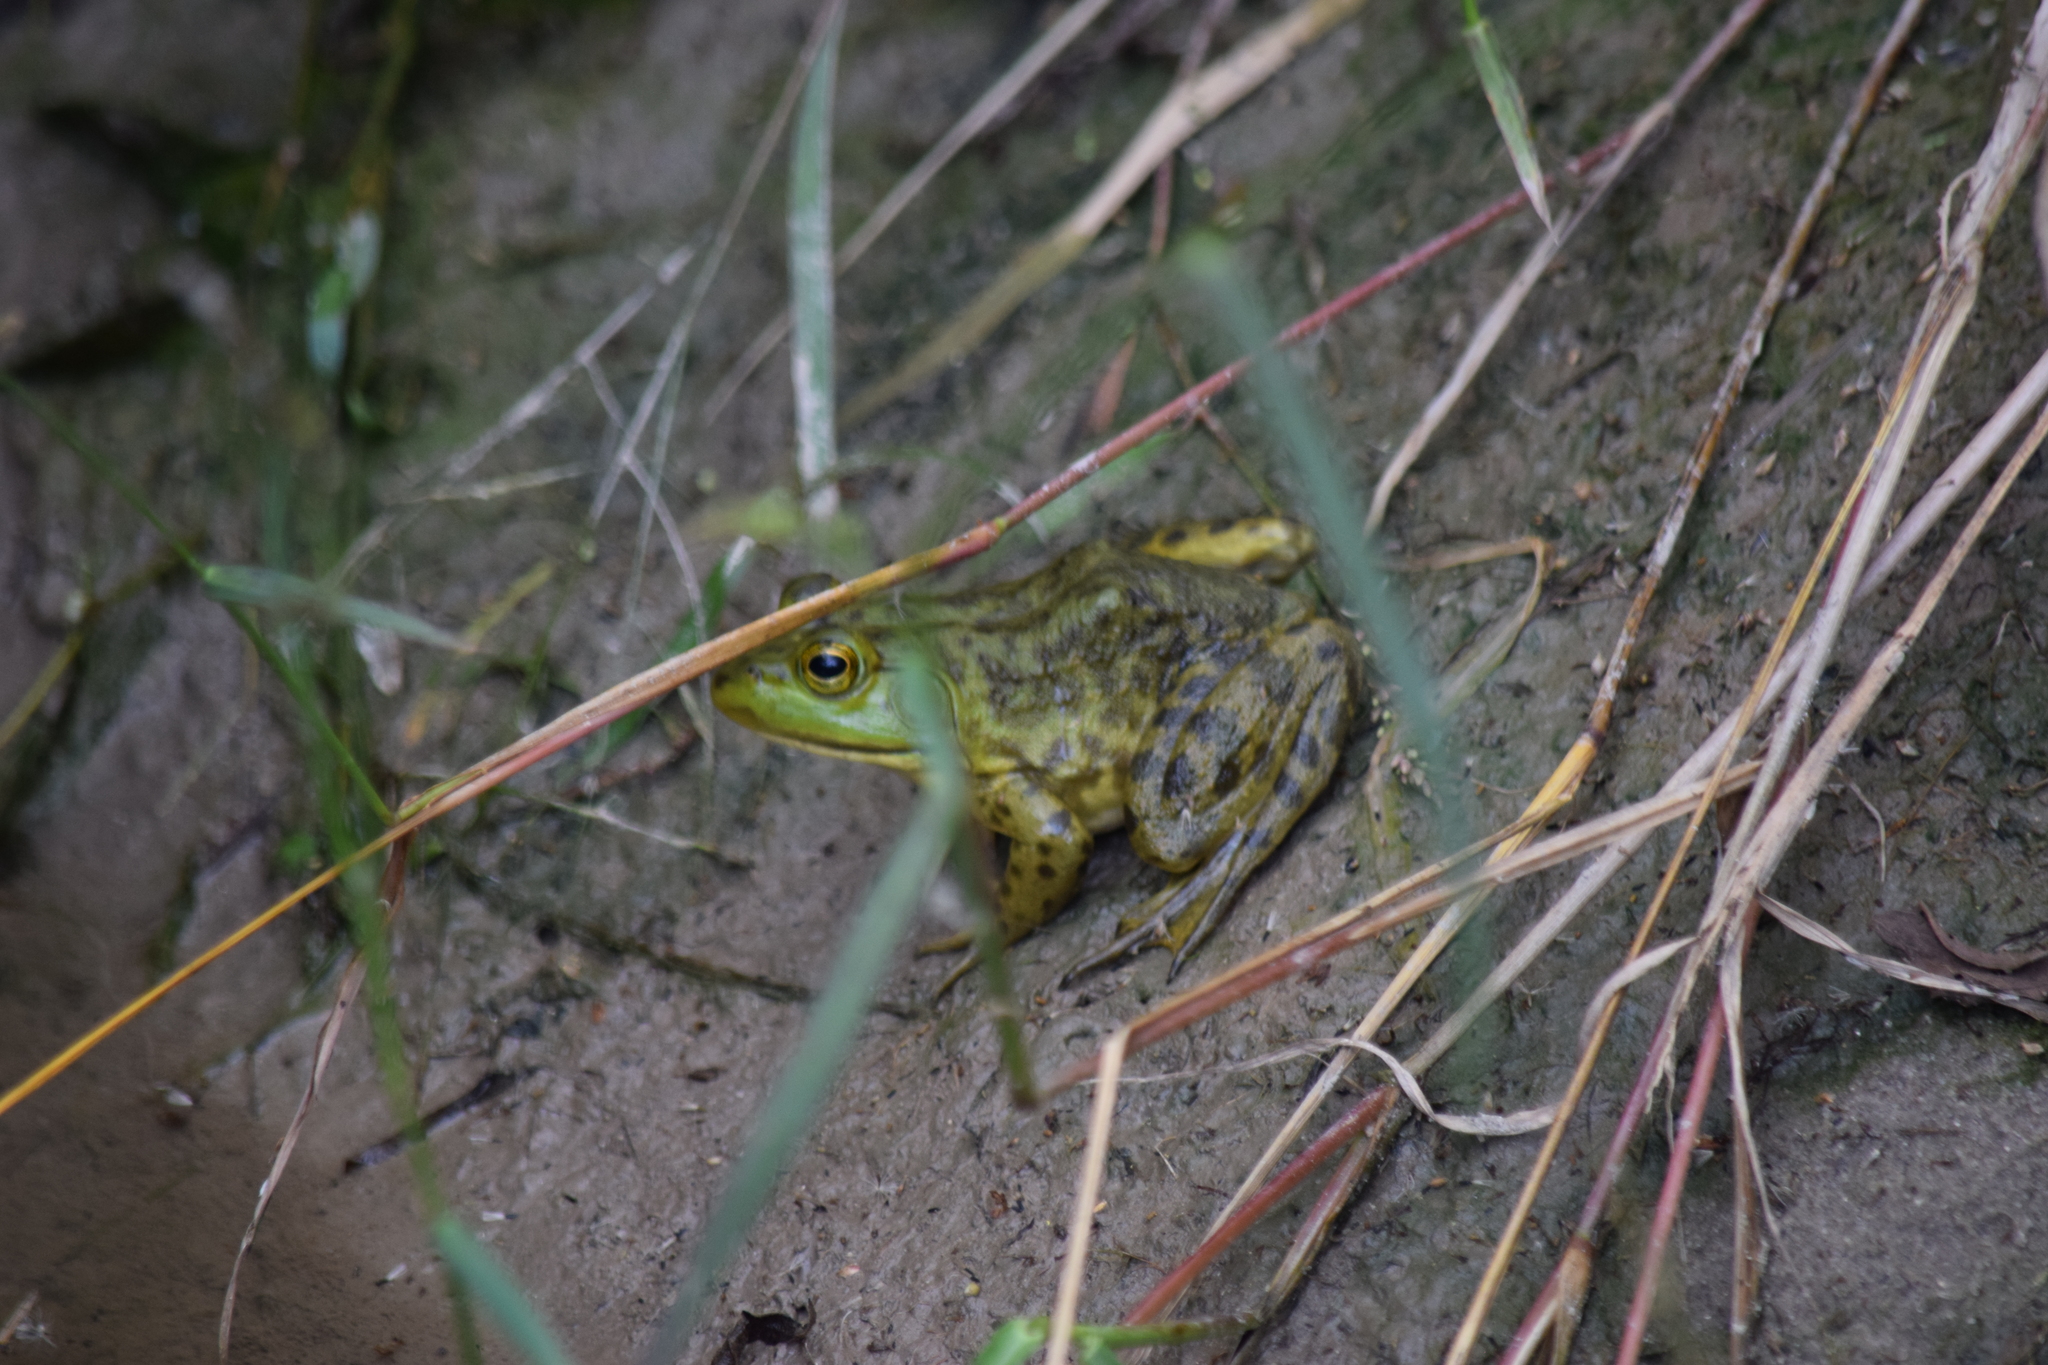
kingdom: Animalia
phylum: Chordata
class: Amphibia
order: Anura
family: Ranidae
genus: Lithobates
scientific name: Lithobates catesbeianus
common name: American bullfrog
